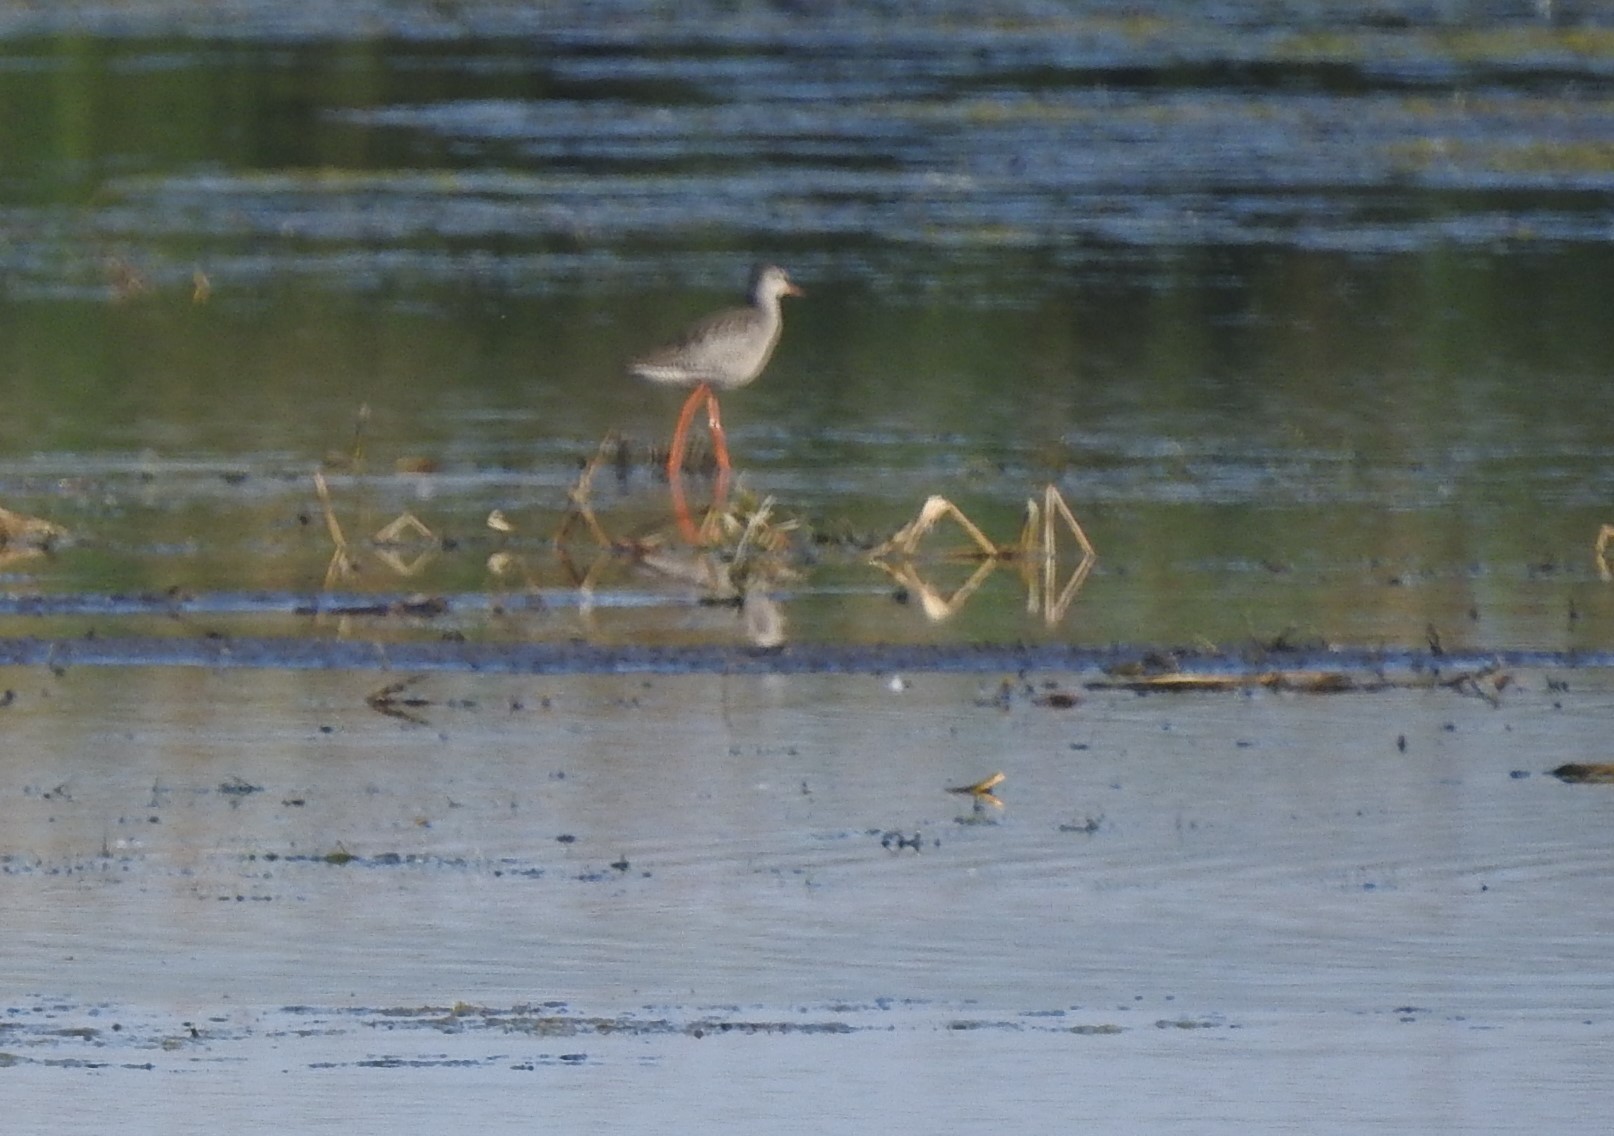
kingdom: Animalia
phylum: Chordata
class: Aves
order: Charadriiformes
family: Scolopacidae
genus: Tringa
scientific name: Tringa totanus
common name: Common redshank
